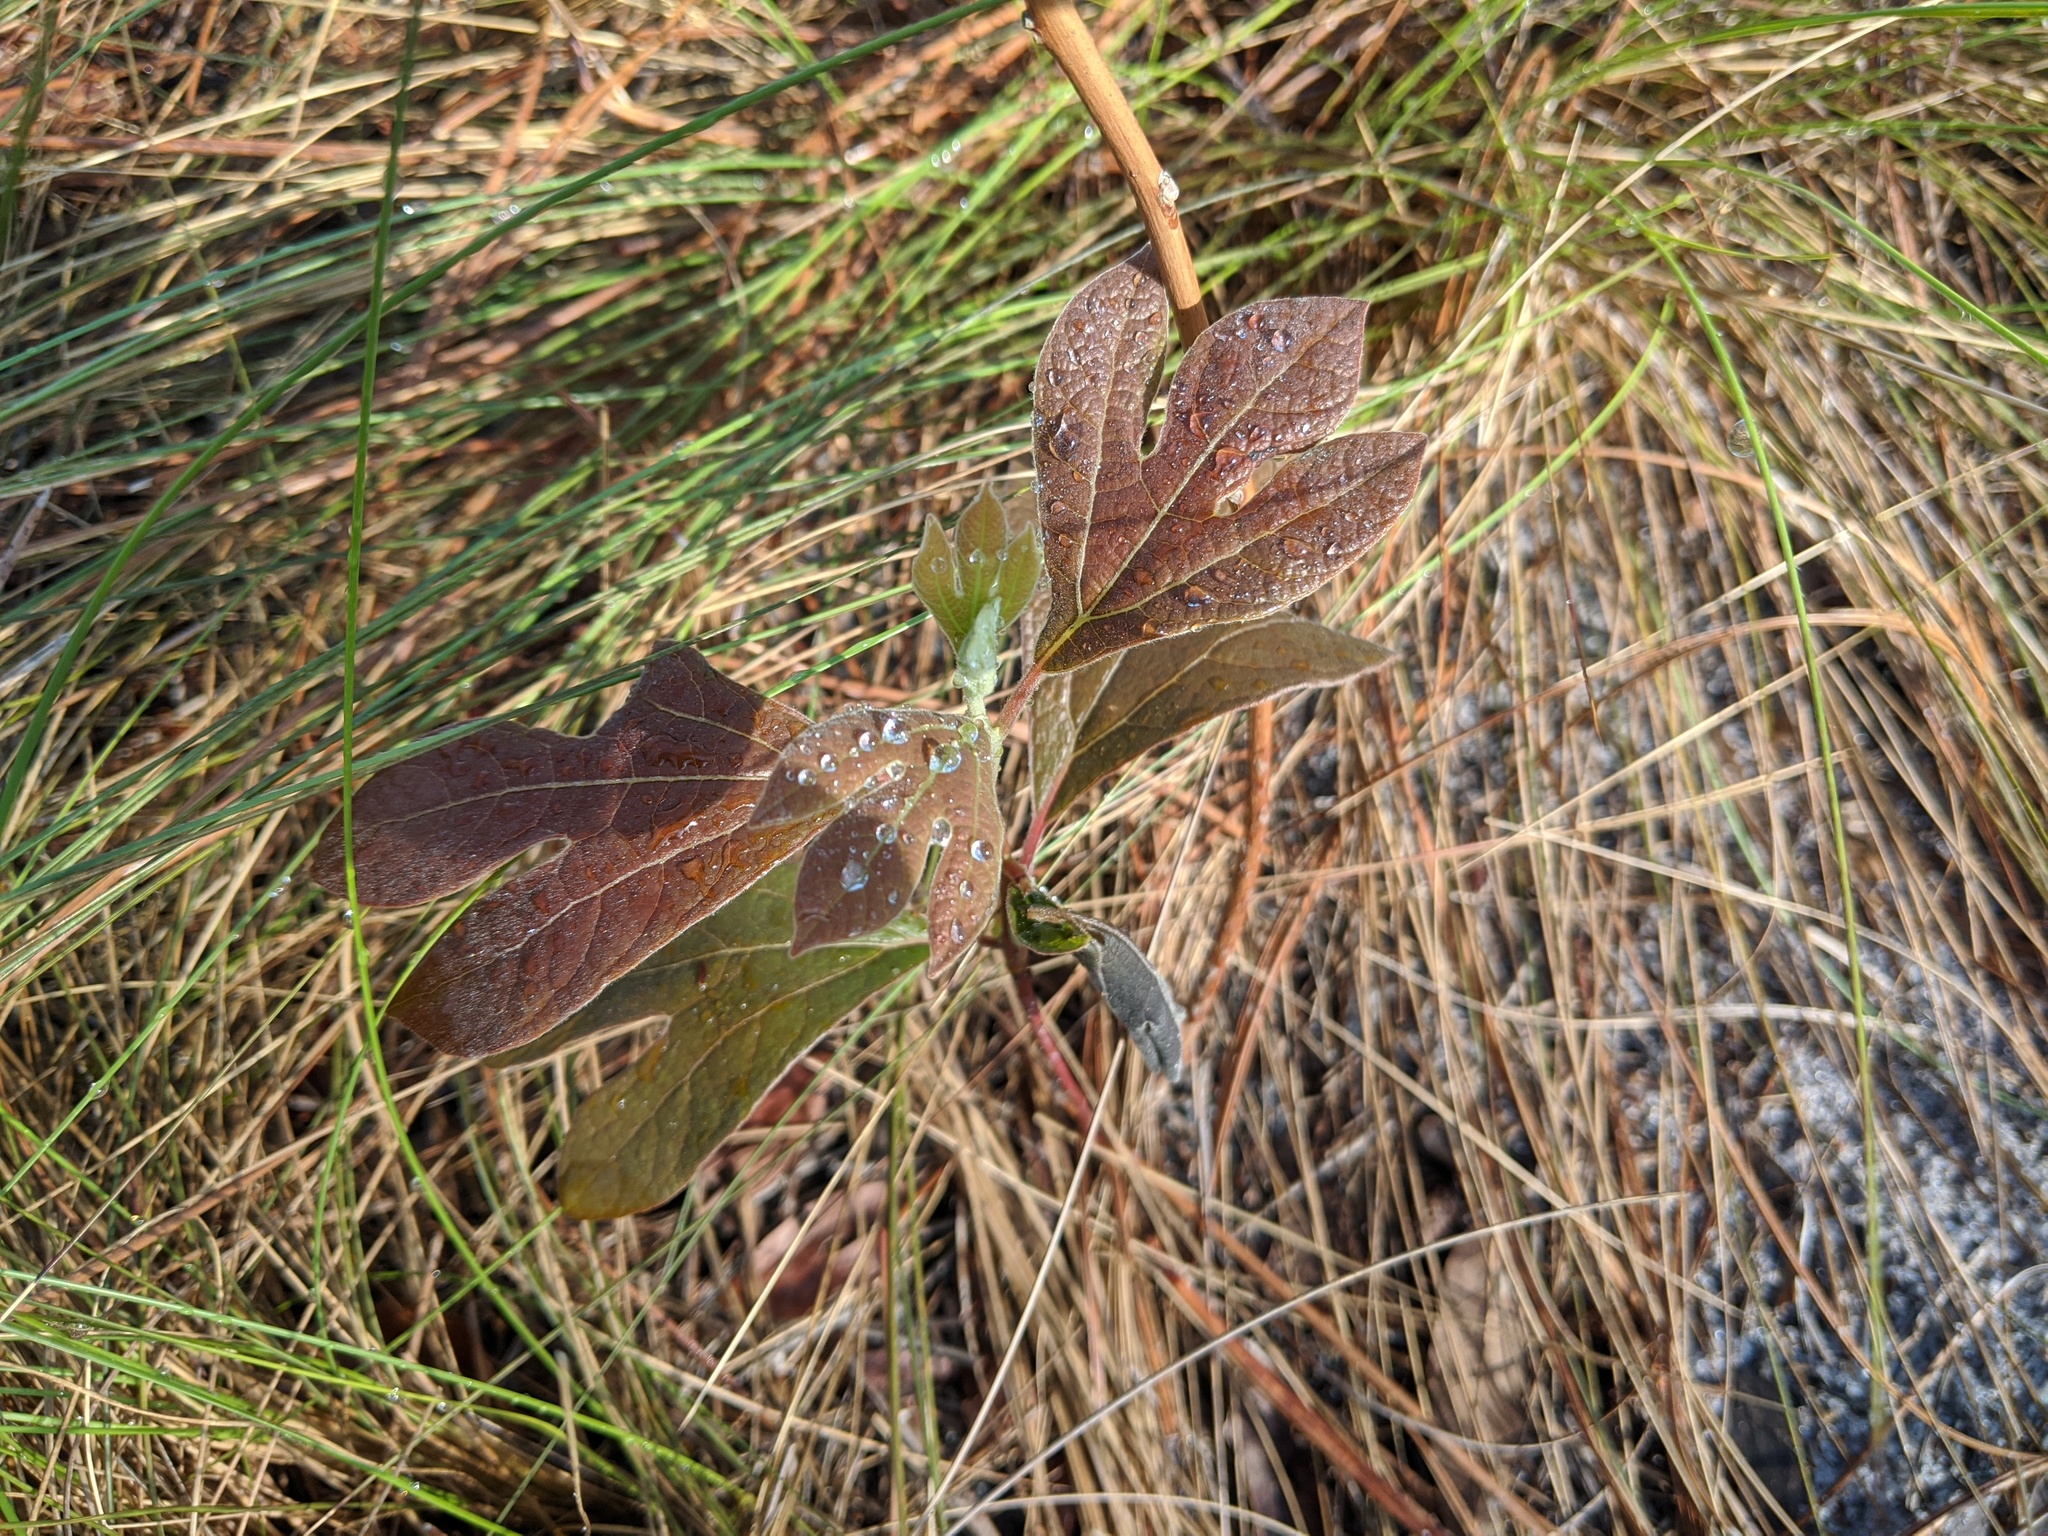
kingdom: Plantae
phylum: Tracheophyta
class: Magnoliopsida
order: Laurales
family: Lauraceae
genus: Sassafras
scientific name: Sassafras albidum
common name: Sassafras
